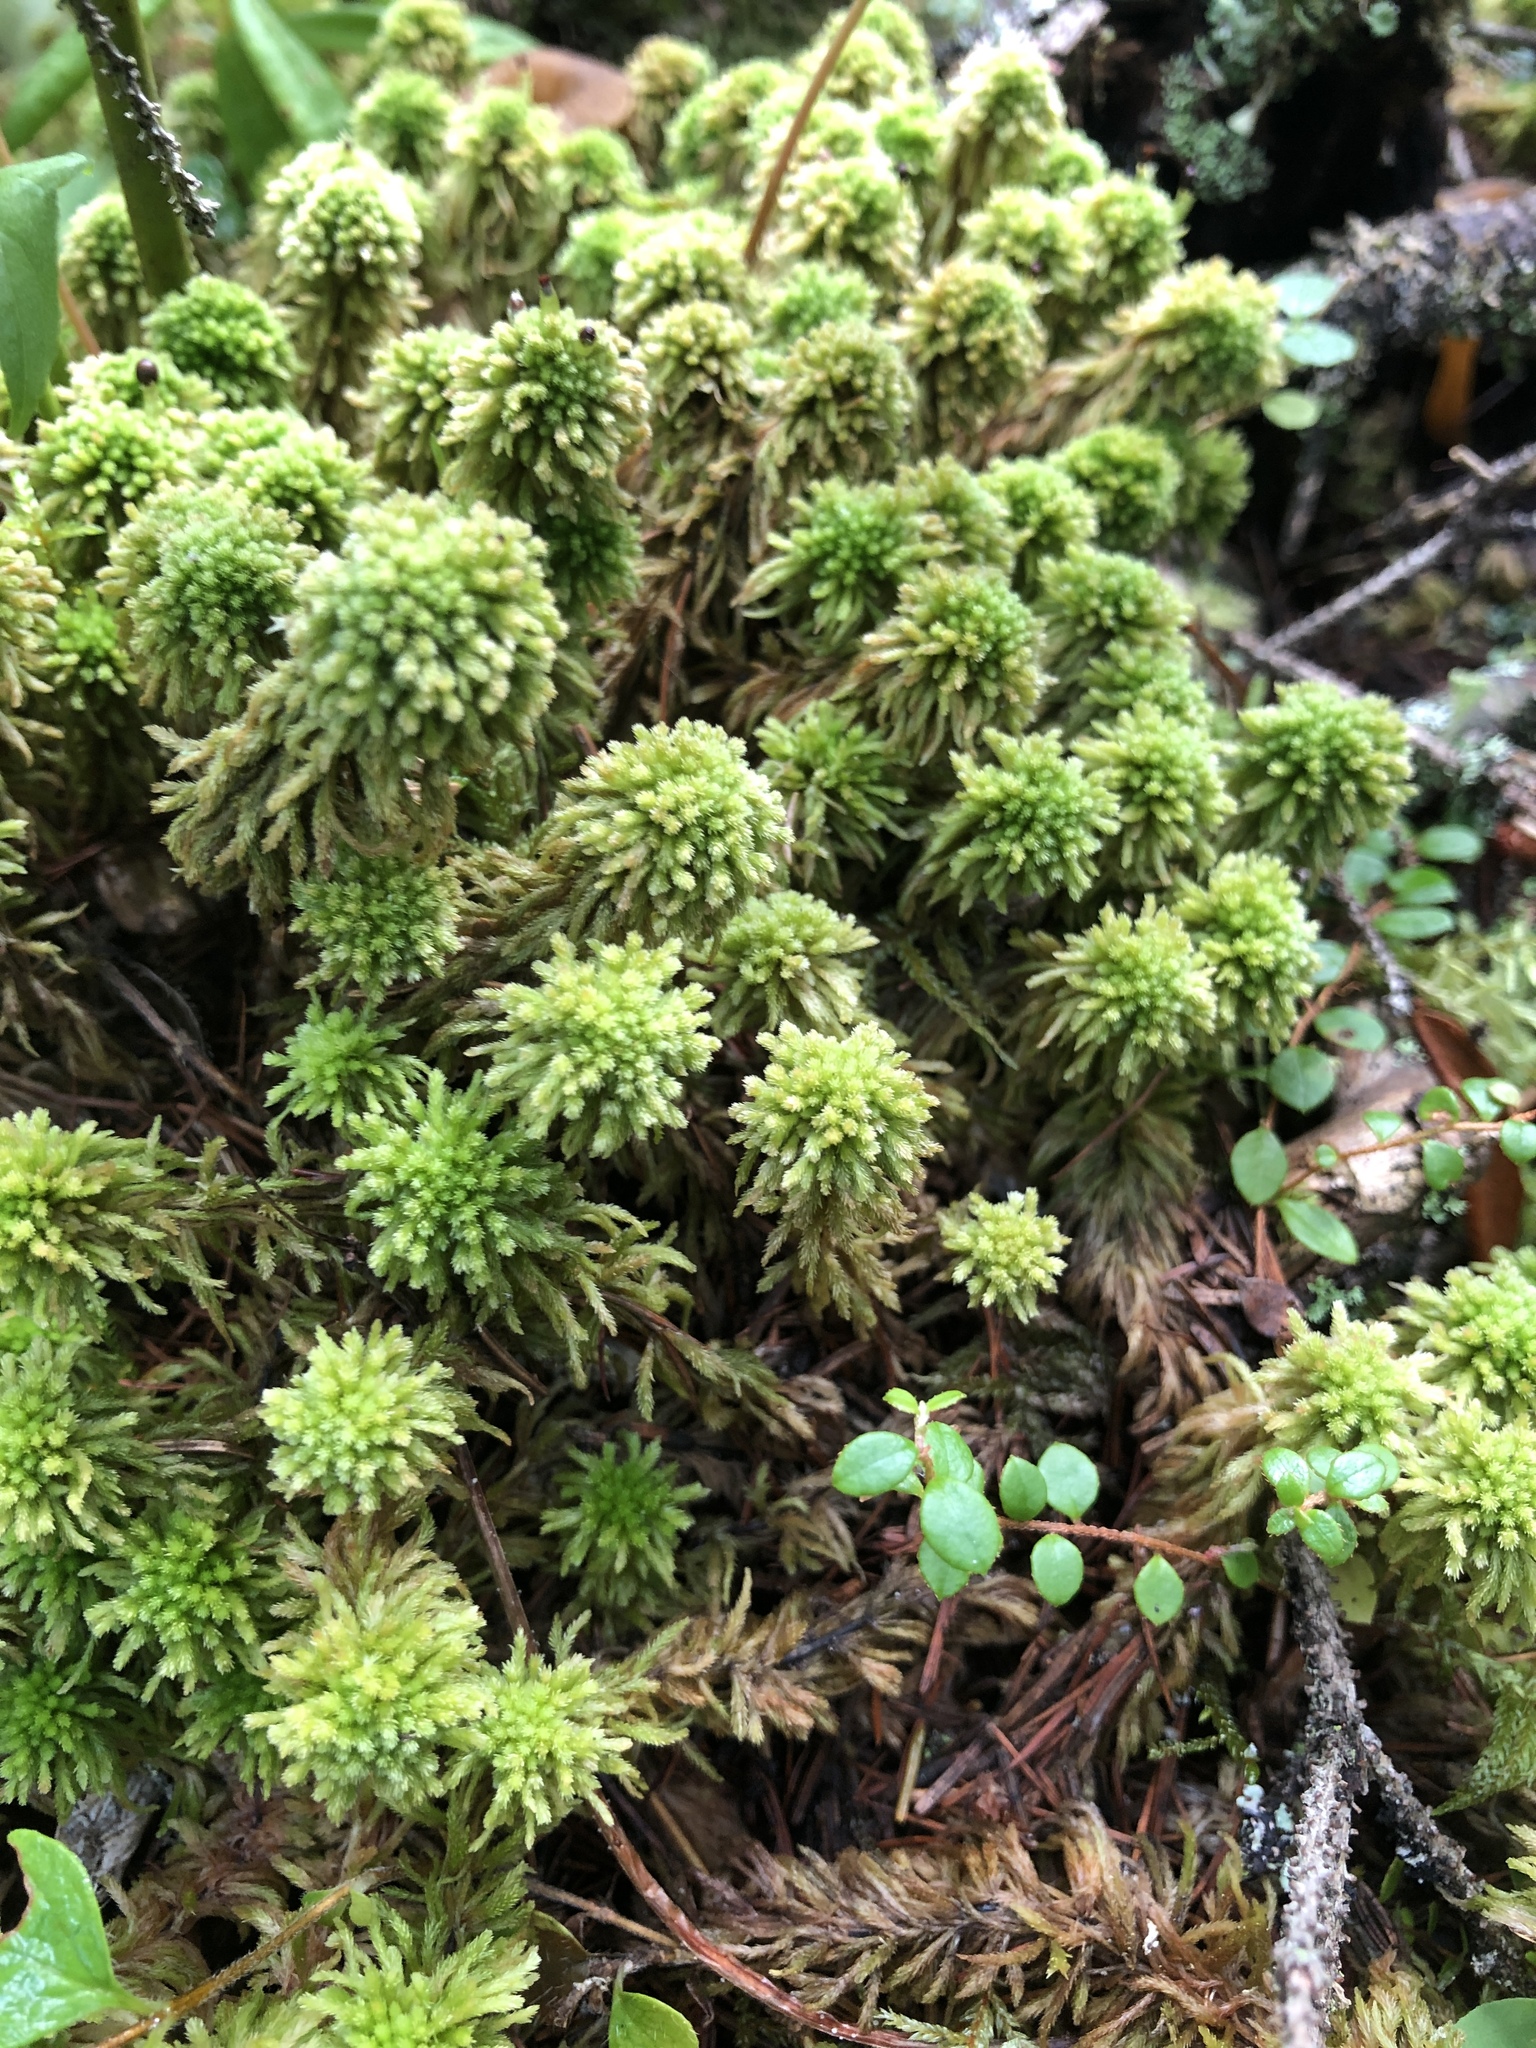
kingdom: Plantae
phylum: Bryophyta
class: Sphagnopsida
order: Sphagnales
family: Sphagnaceae
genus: Sphagnum
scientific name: Sphagnum wulfianum
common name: Wulf's peat moss
